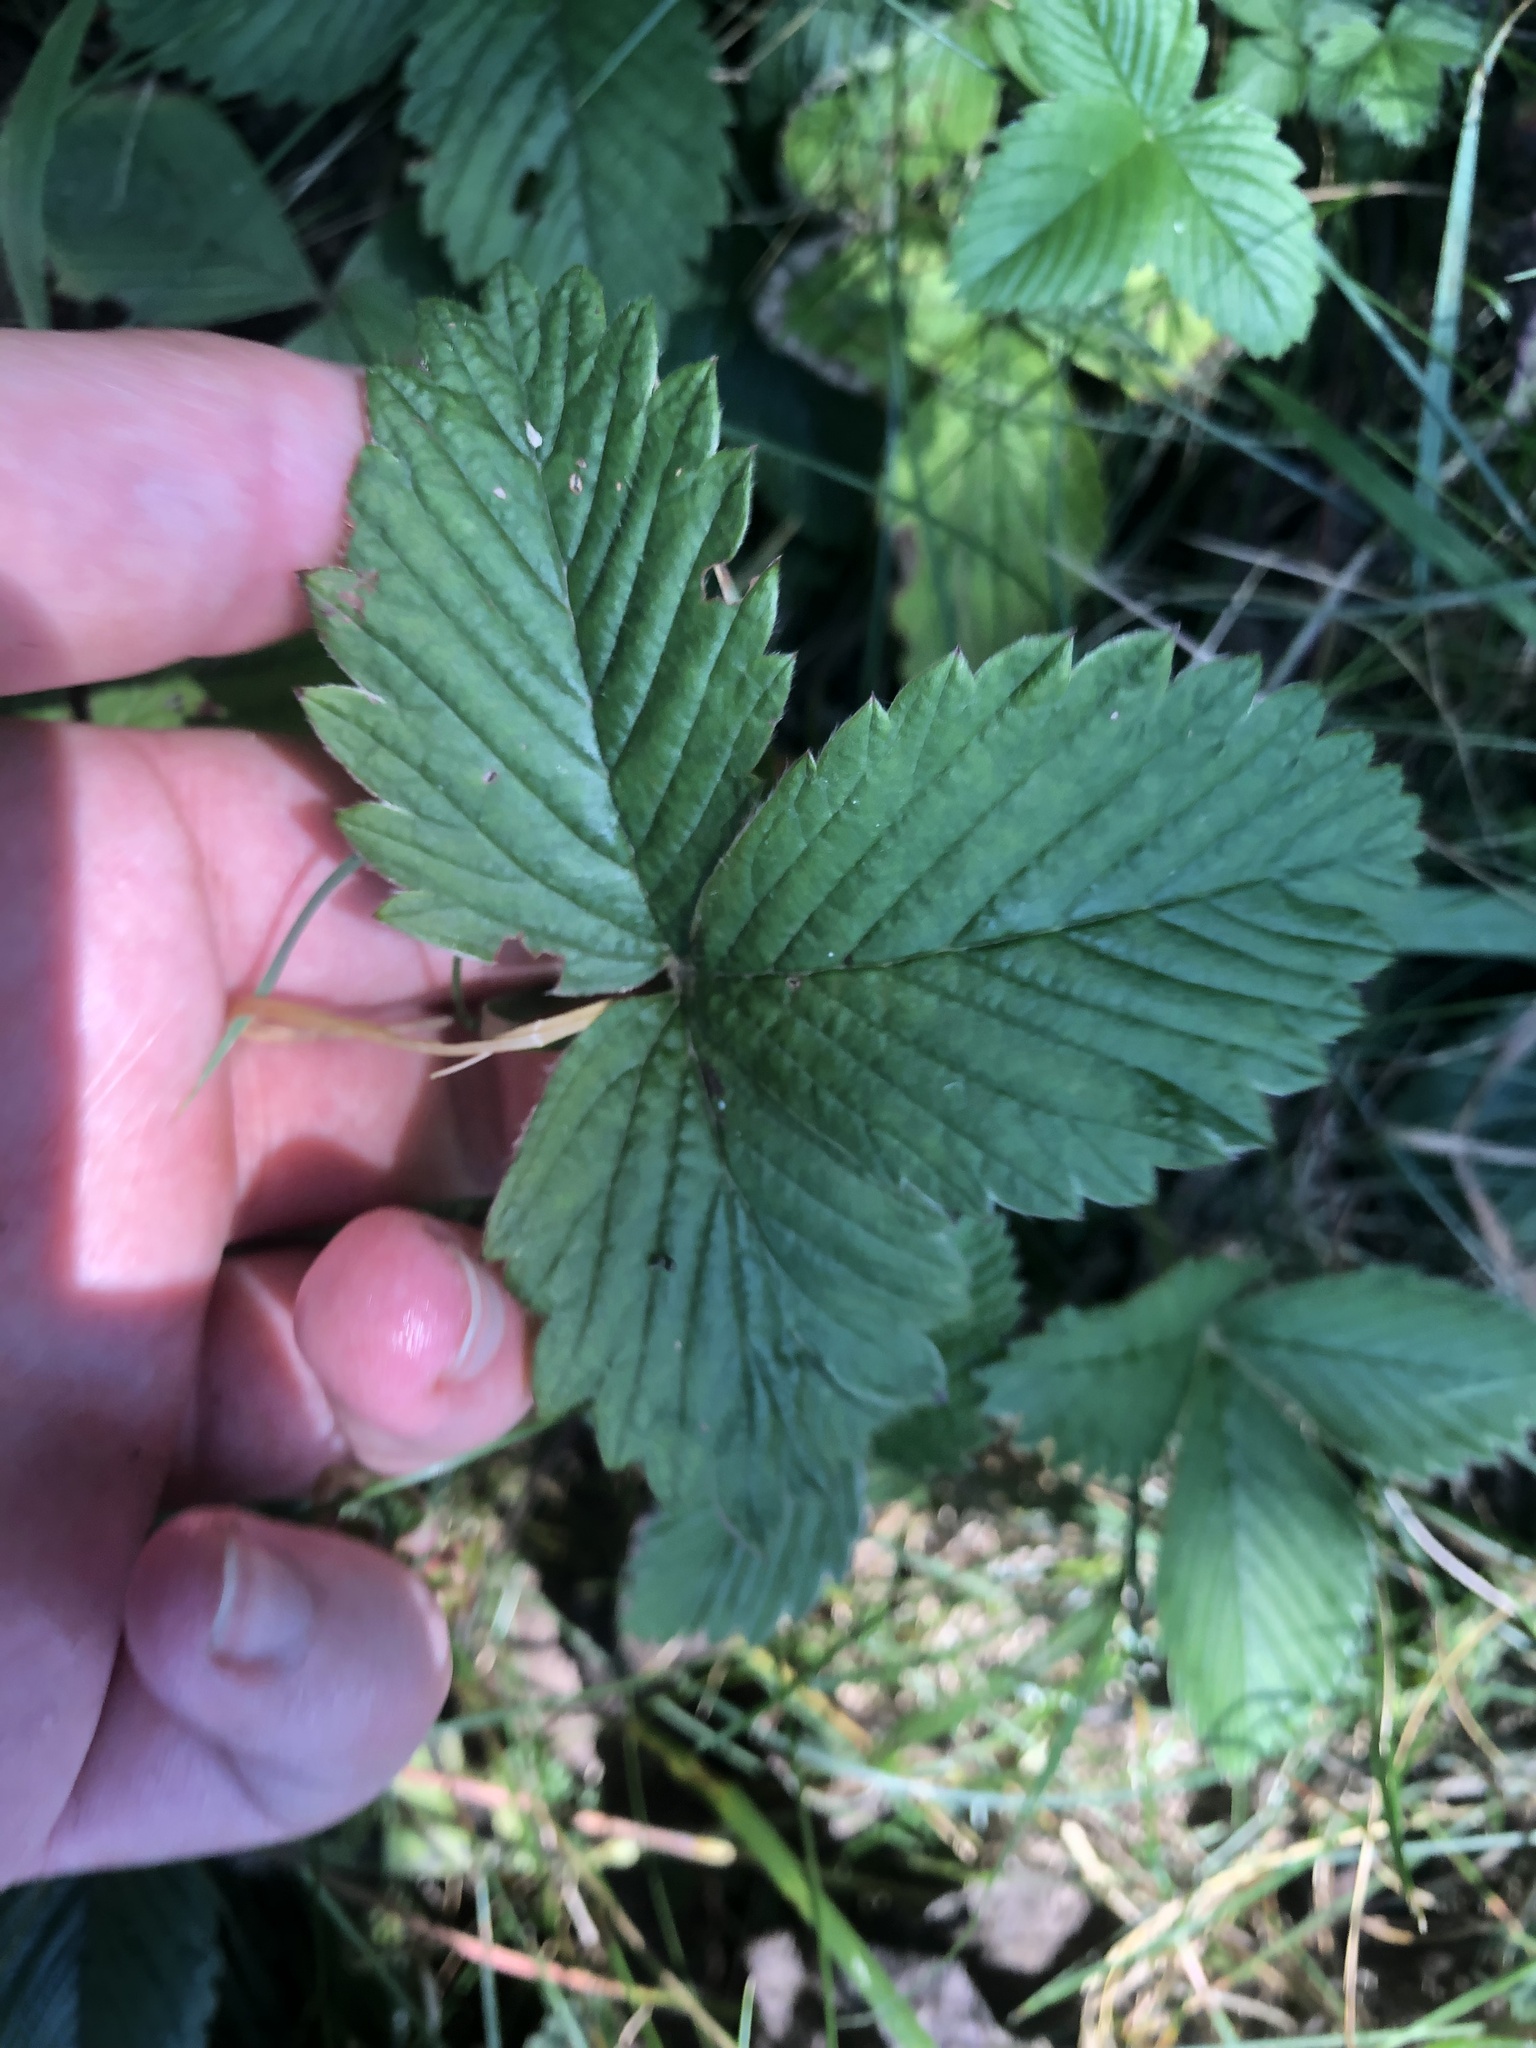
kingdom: Plantae
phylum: Tracheophyta
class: Magnoliopsida
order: Rosales
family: Rosaceae
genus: Fragaria
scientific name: Fragaria moschata
